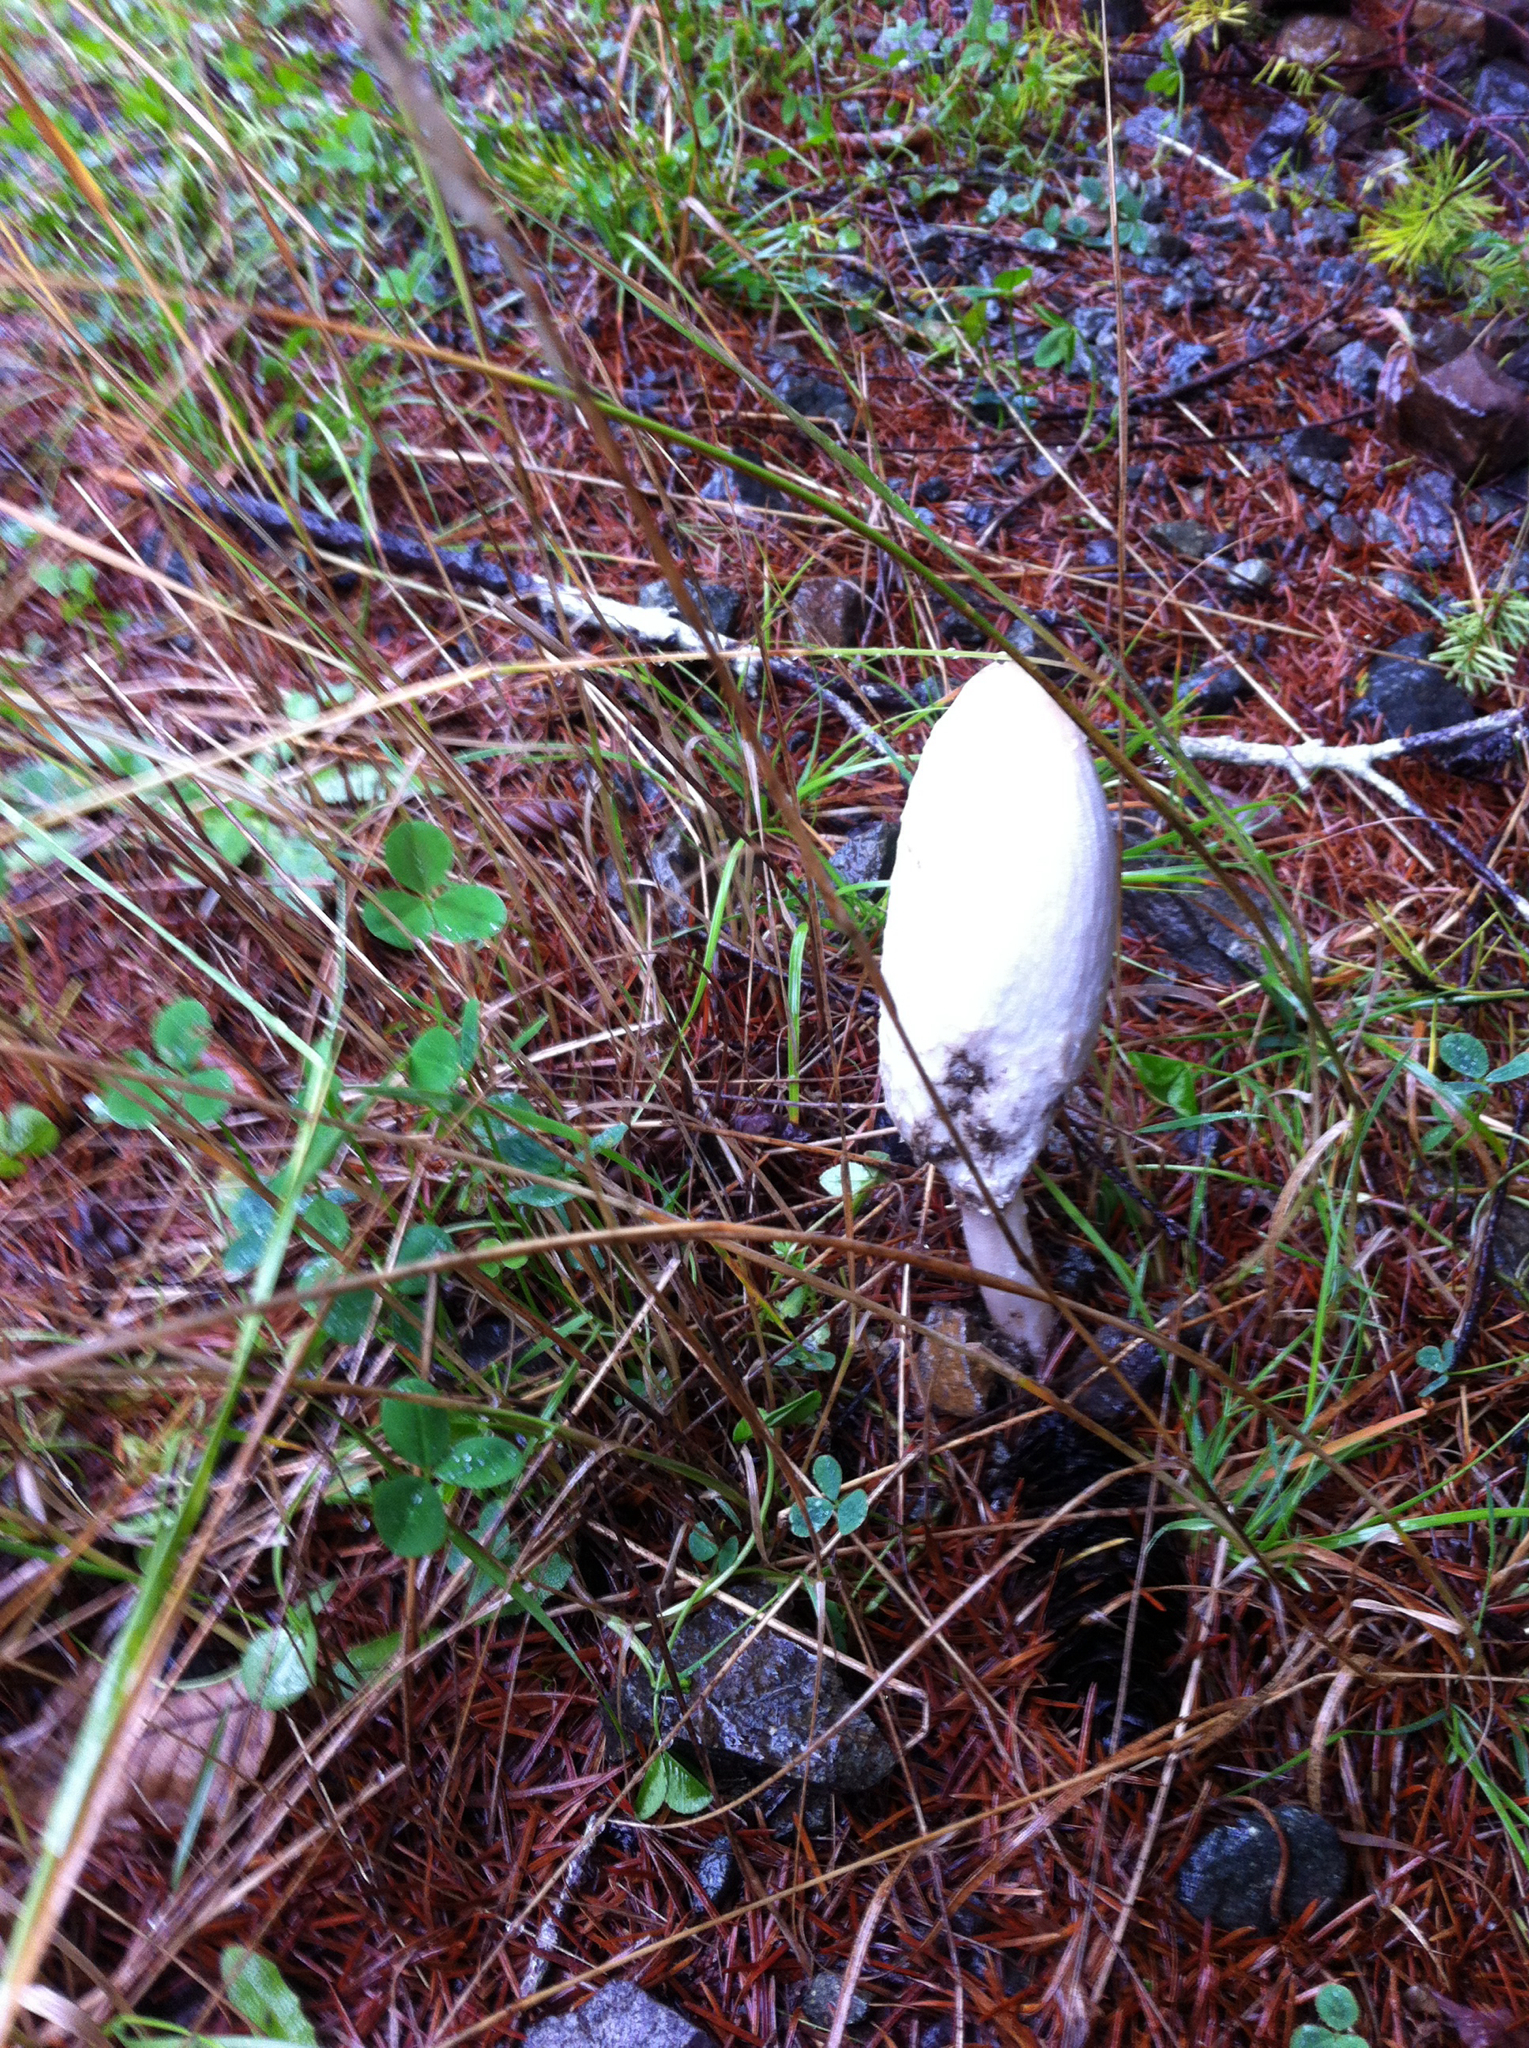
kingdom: Fungi
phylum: Basidiomycota
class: Agaricomycetes
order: Agaricales
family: Agaricaceae
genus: Coprinus
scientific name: Coprinus comatus
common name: Lawyer's wig
